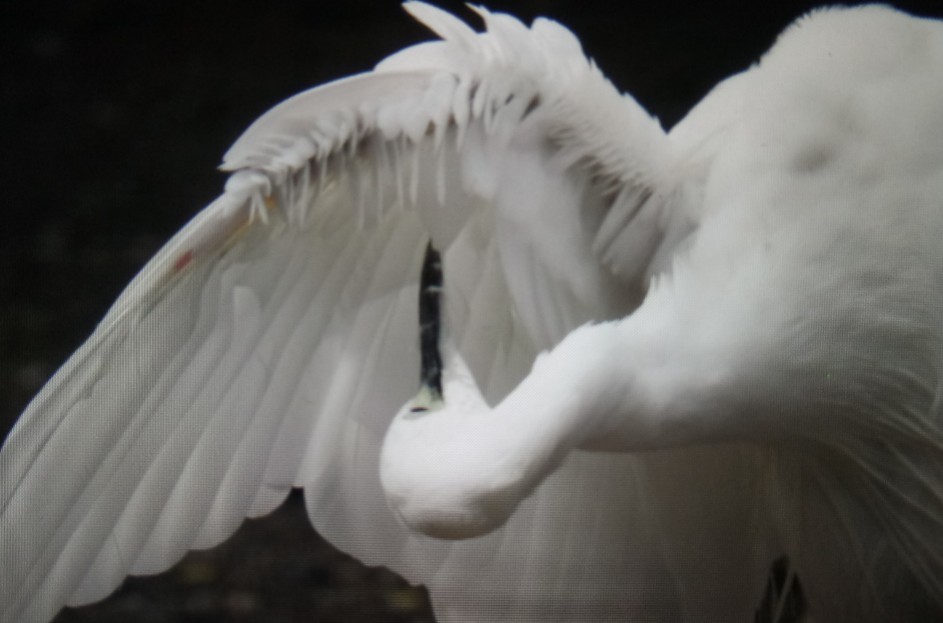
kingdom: Animalia
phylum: Chordata
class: Aves
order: Pelecaniformes
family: Ardeidae
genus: Egretta
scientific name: Egretta garzetta
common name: Little egret
